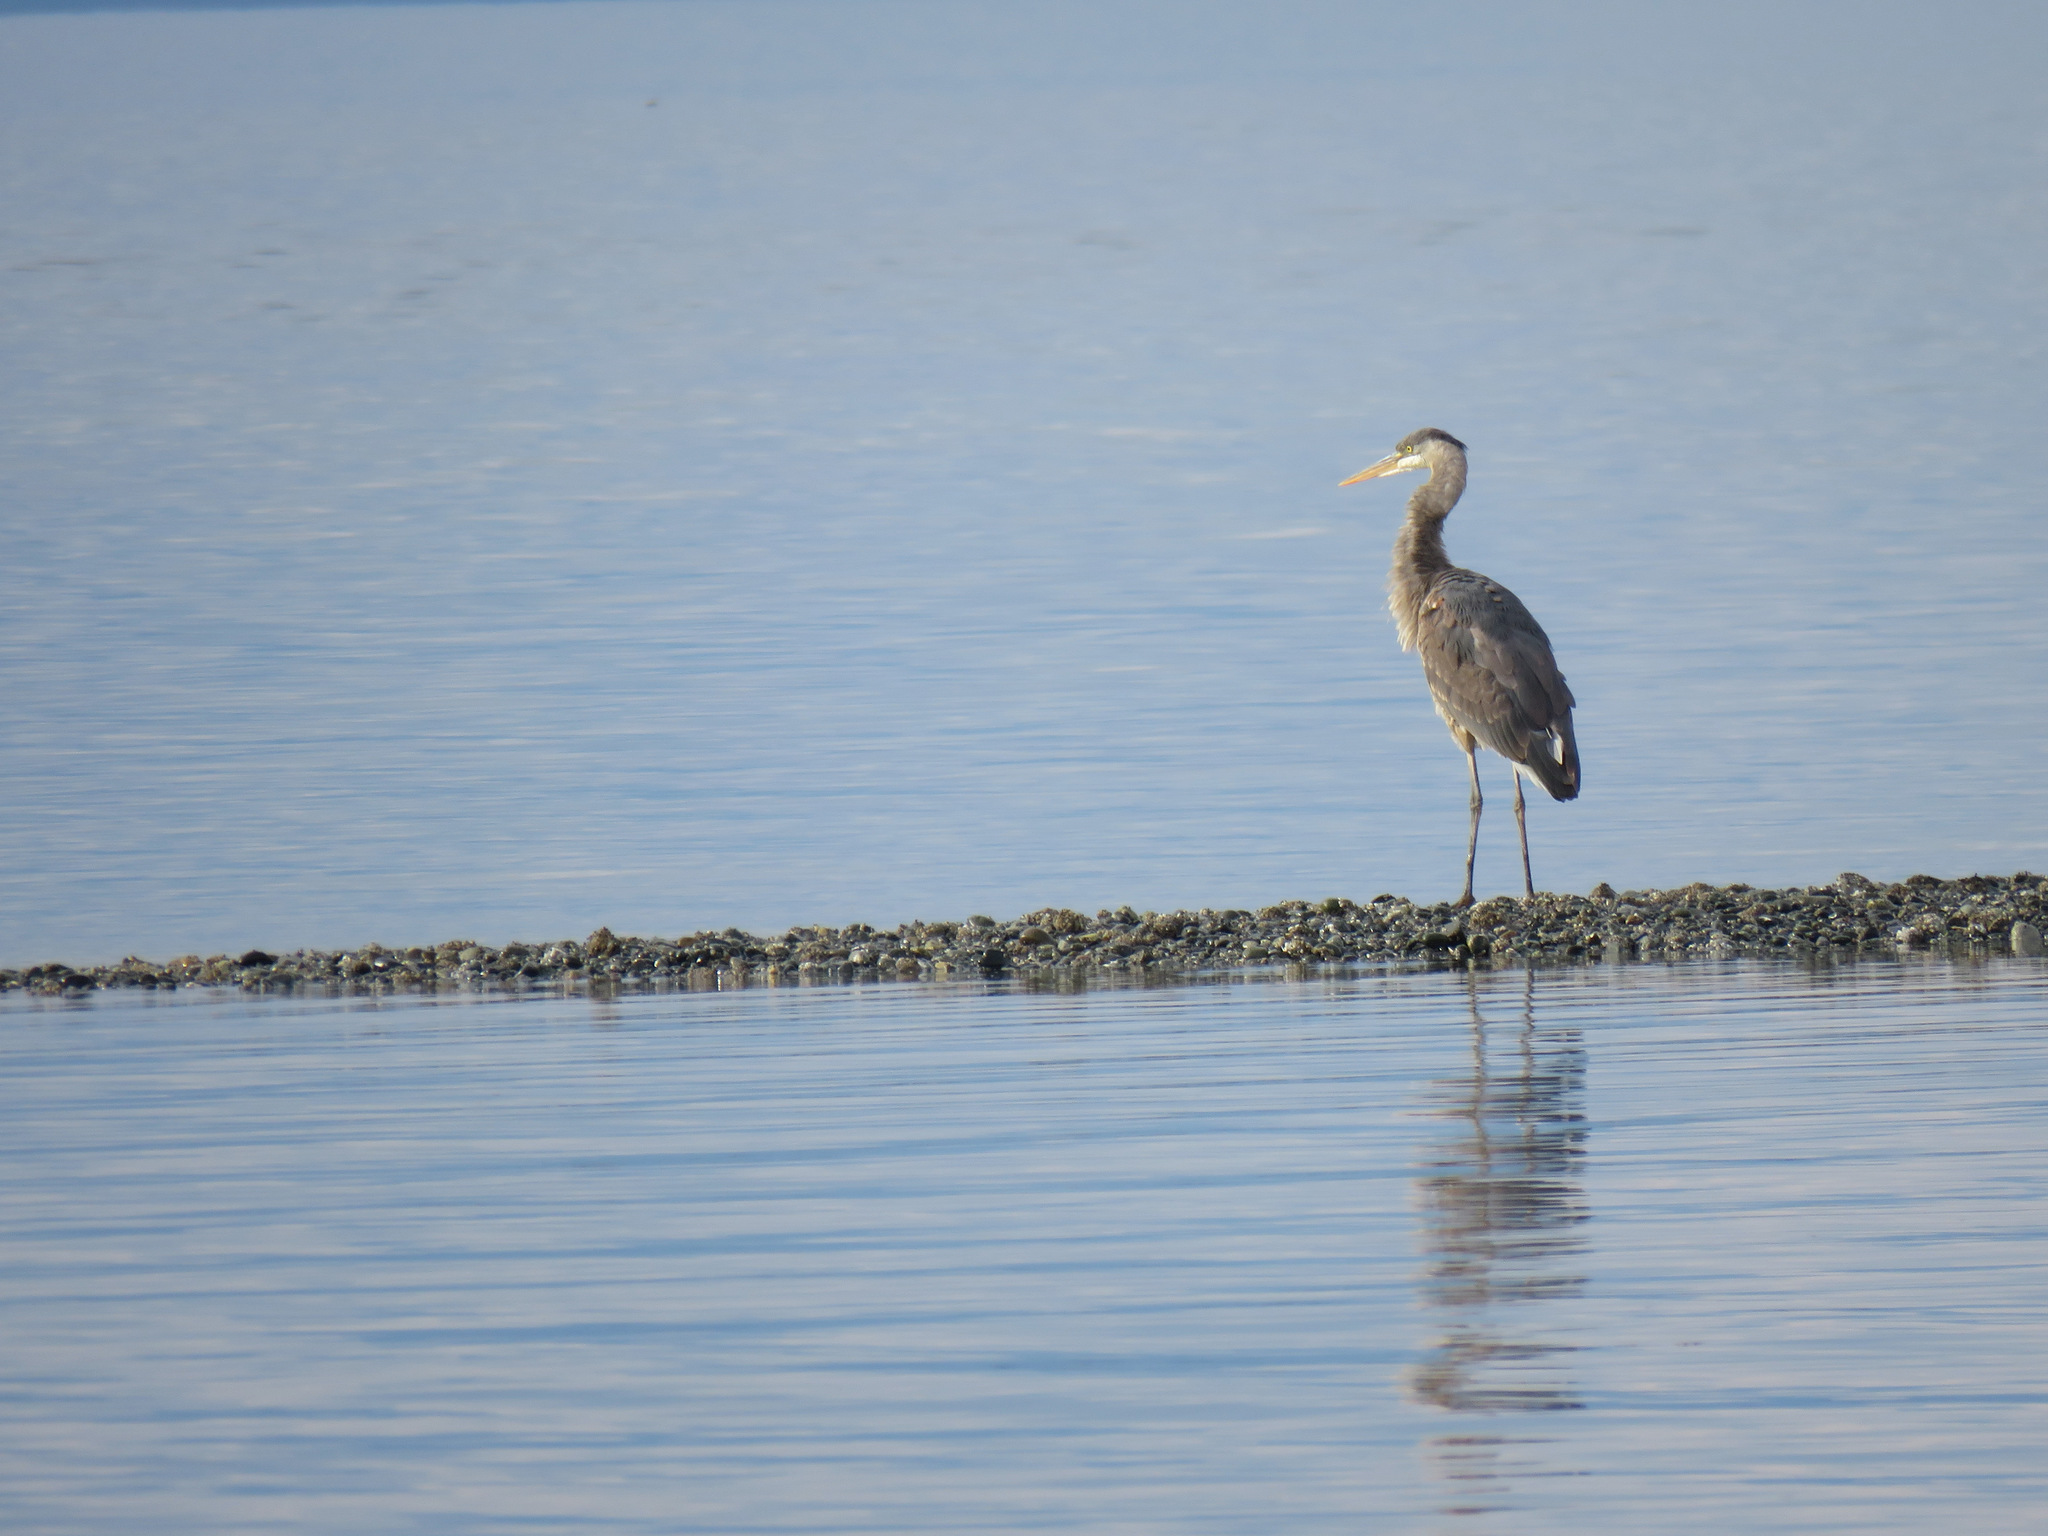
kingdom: Animalia
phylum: Chordata
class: Aves
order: Pelecaniformes
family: Ardeidae
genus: Ardea
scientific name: Ardea herodias
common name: Great blue heron
